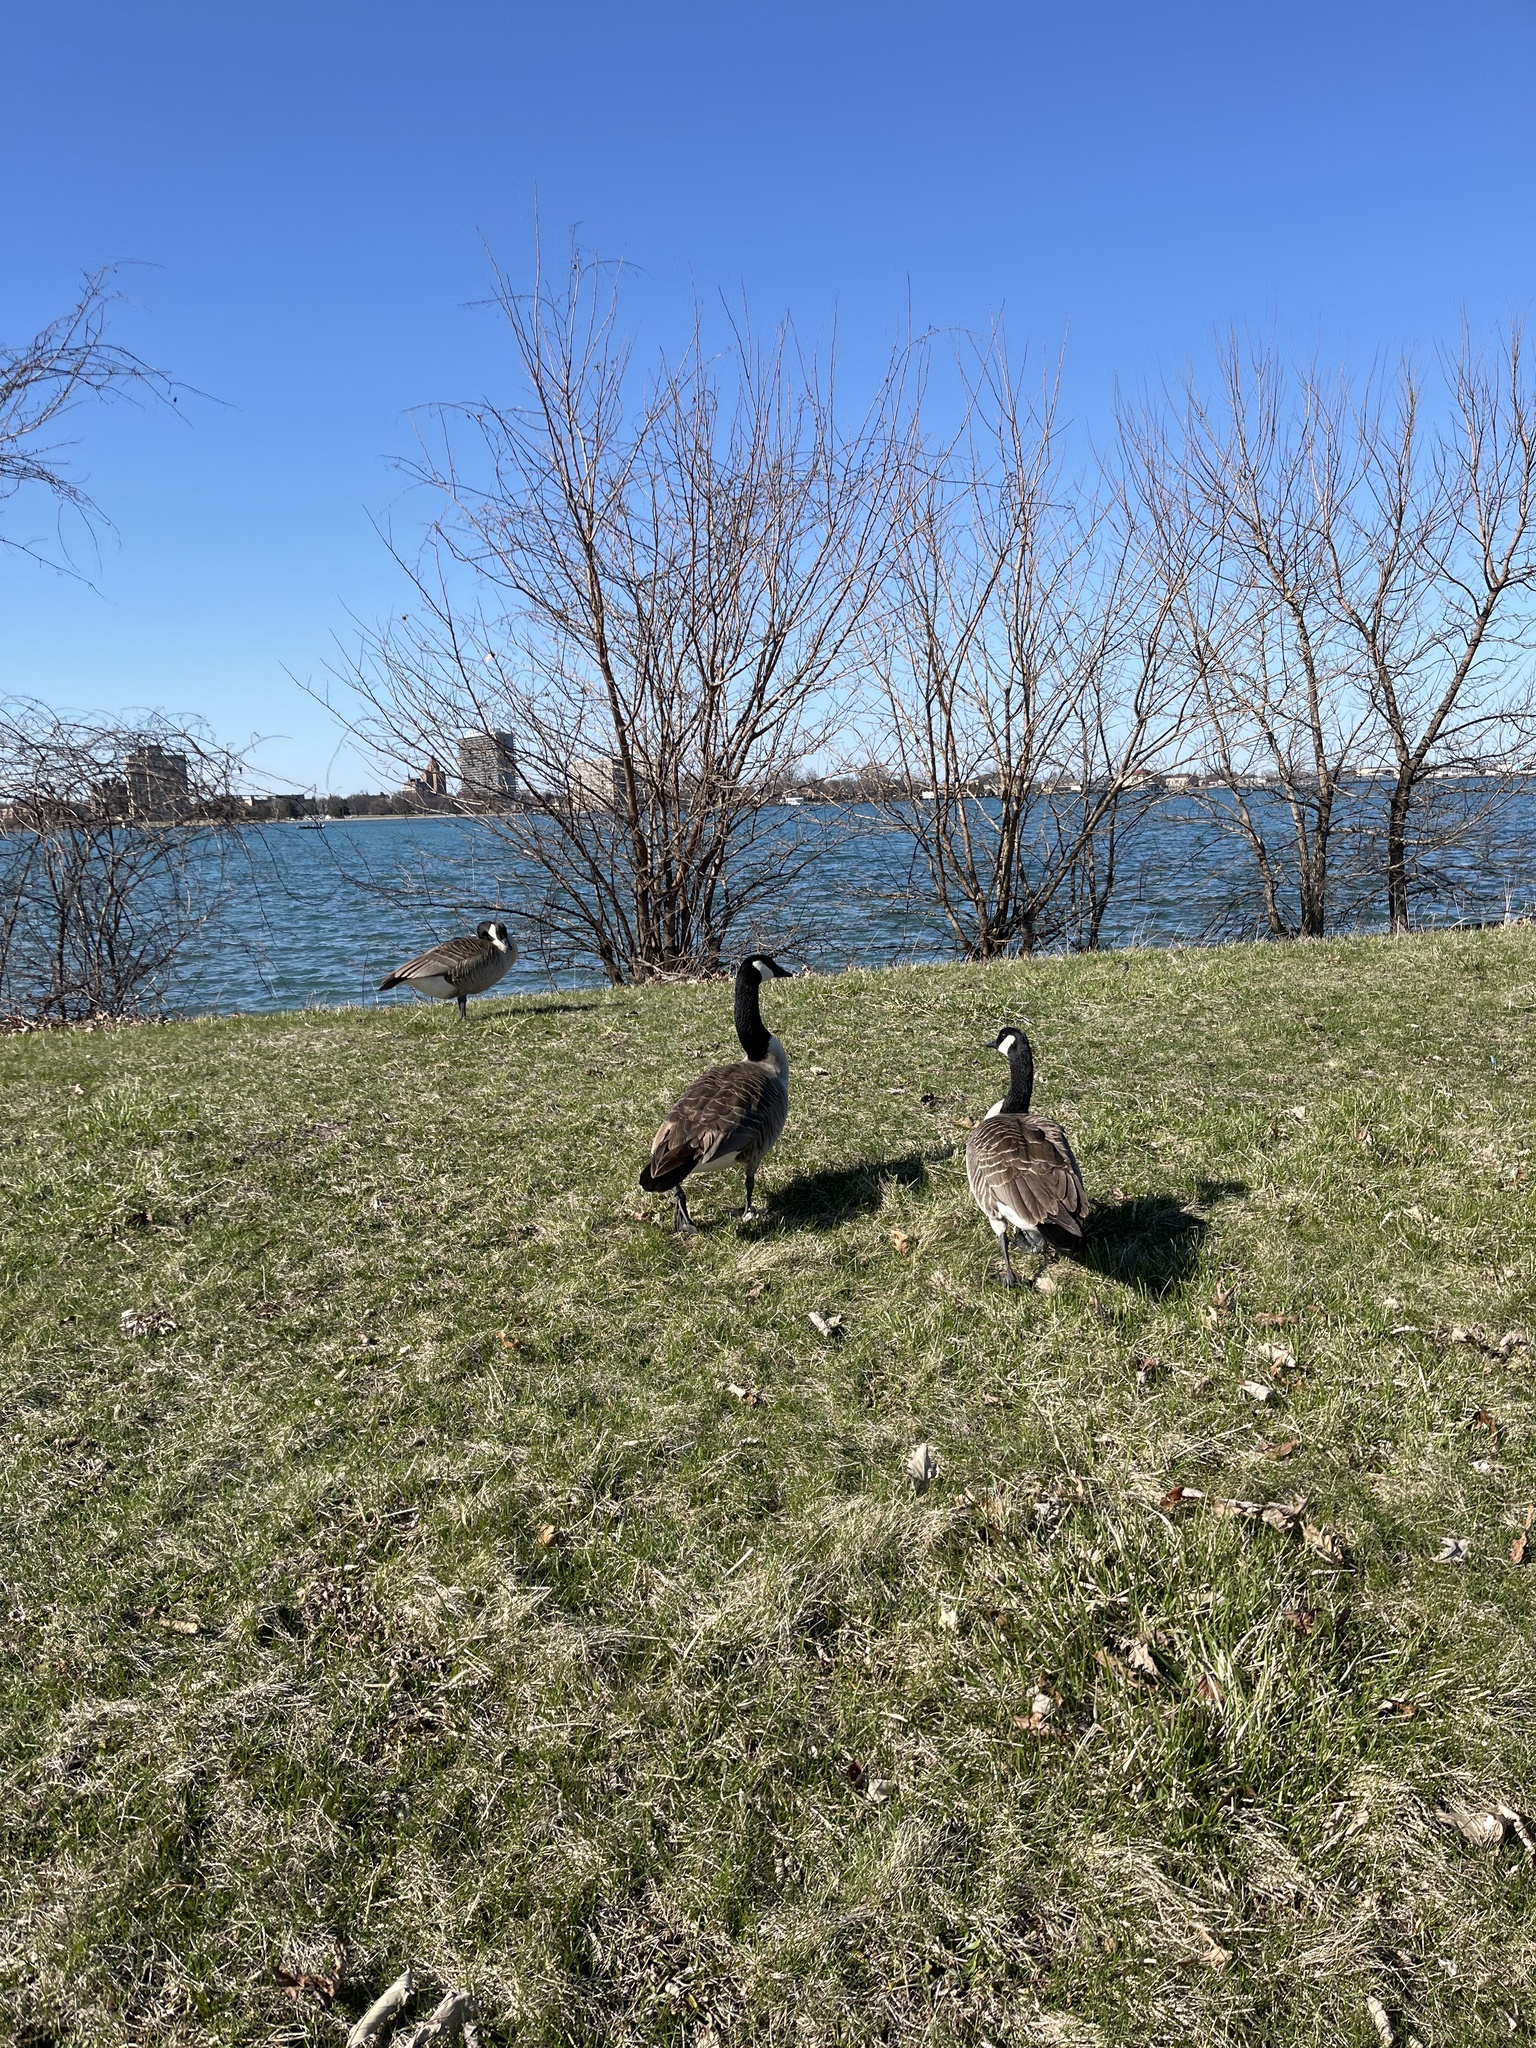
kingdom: Animalia
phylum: Chordata
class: Aves
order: Anseriformes
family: Anatidae
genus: Branta
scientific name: Branta canadensis
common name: Canada goose
